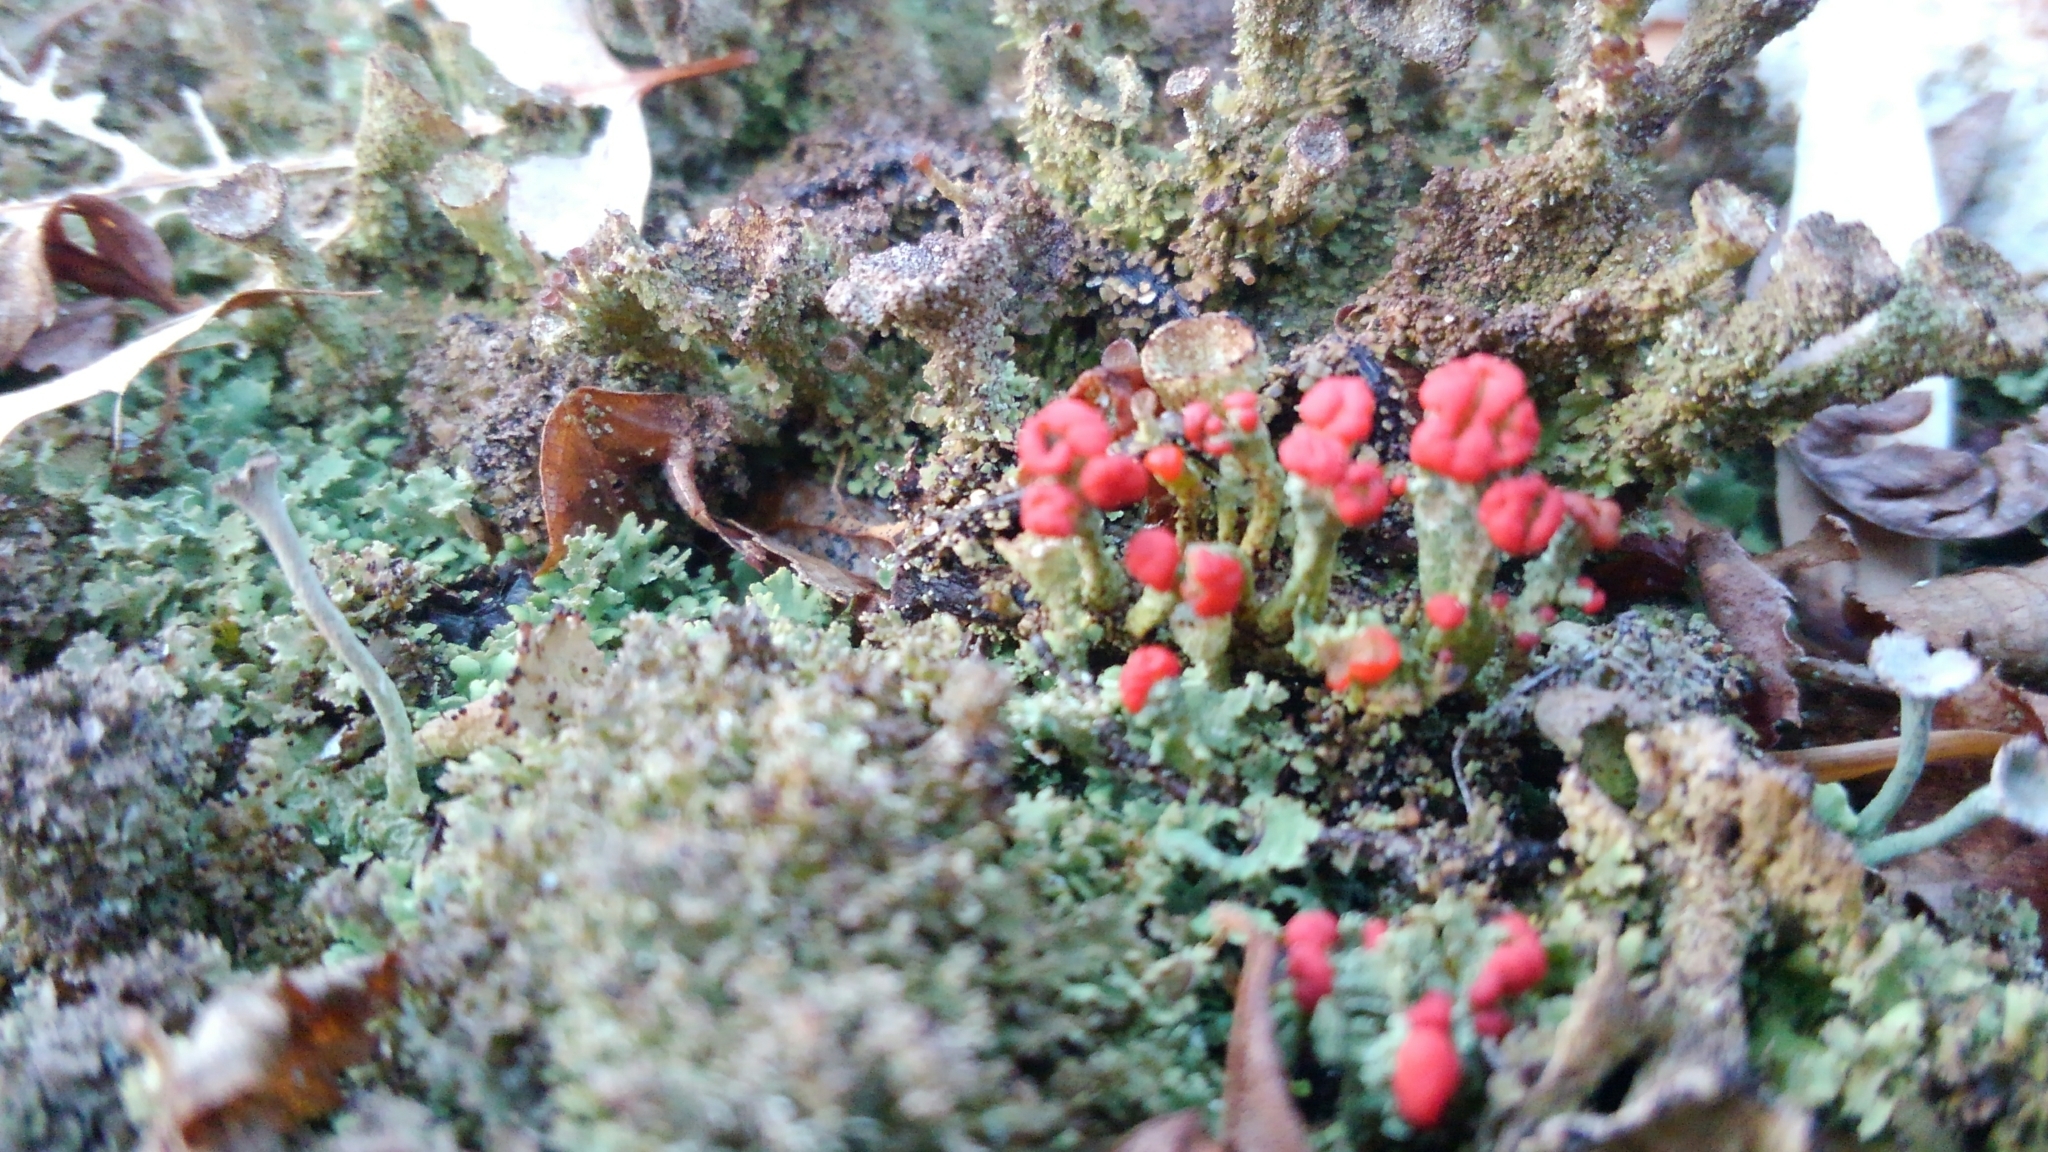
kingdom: Fungi
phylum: Ascomycota
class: Lecanoromycetes
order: Lecanorales
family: Cladoniaceae
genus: Cladonia
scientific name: Cladonia cristatella
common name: British soldier lichen
